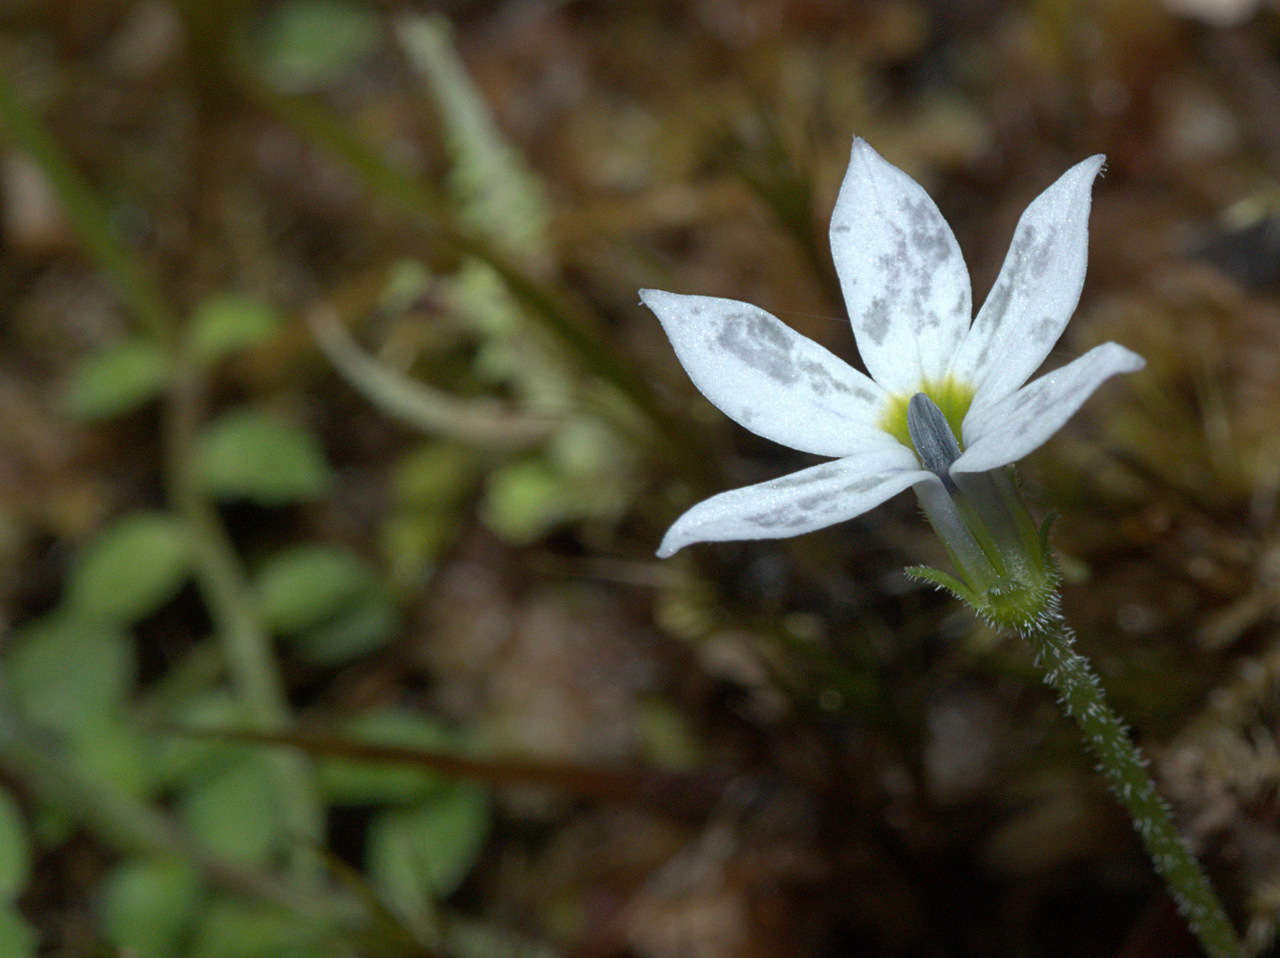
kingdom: Plantae
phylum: Tracheophyta
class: Magnoliopsida
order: Asterales
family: Campanulaceae
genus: Lobelia
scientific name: Lobelia pedunculata
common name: Matted pratia
